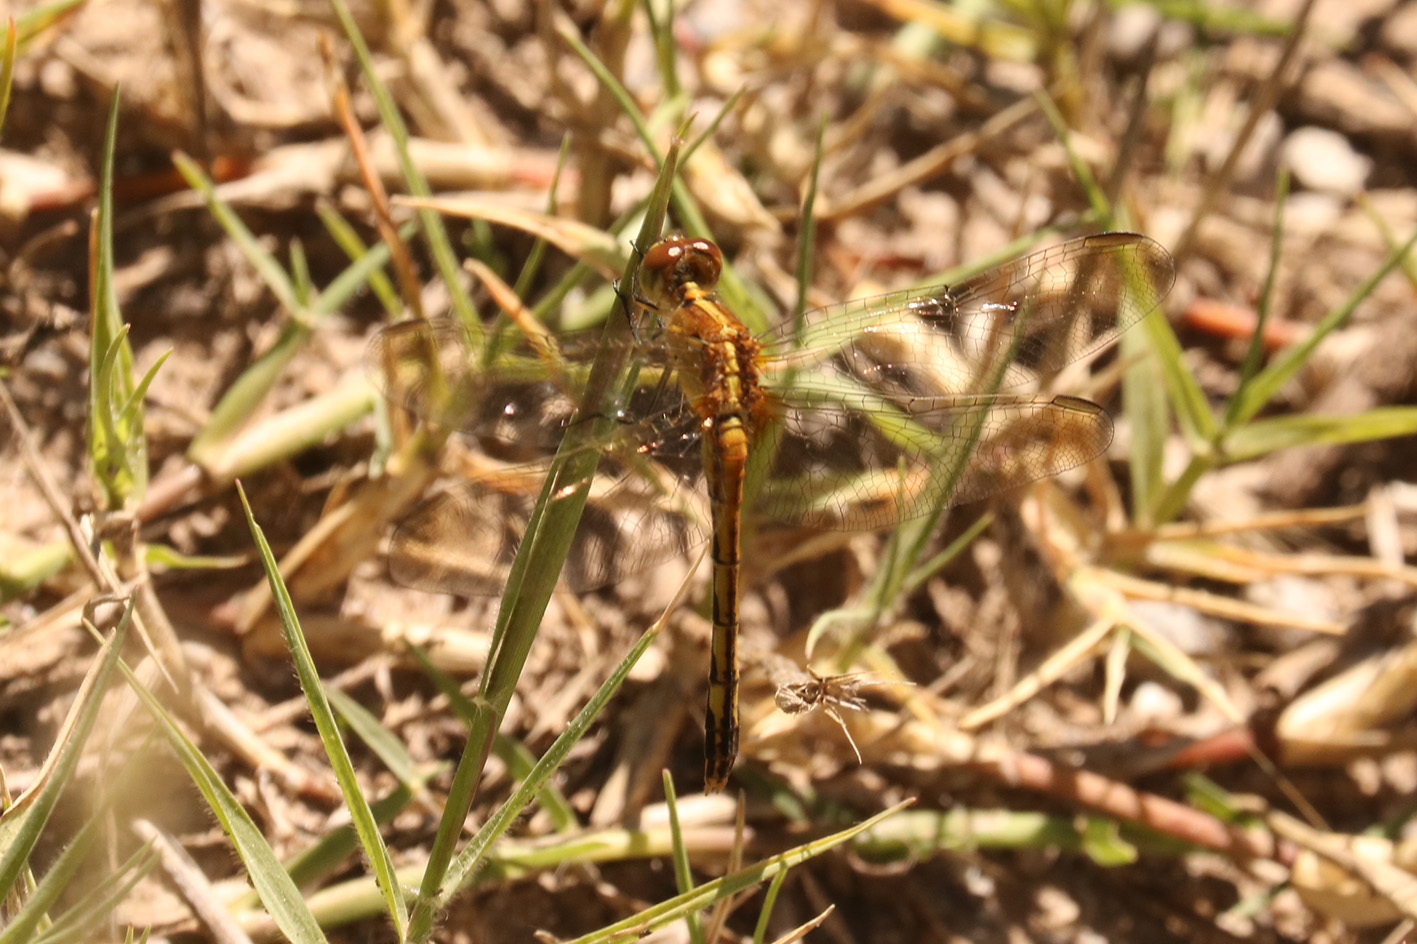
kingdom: Animalia
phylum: Arthropoda
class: Insecta
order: Odonata
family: Libellulidae
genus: Erythrodiplax
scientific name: Erythrodiplax nigricans
